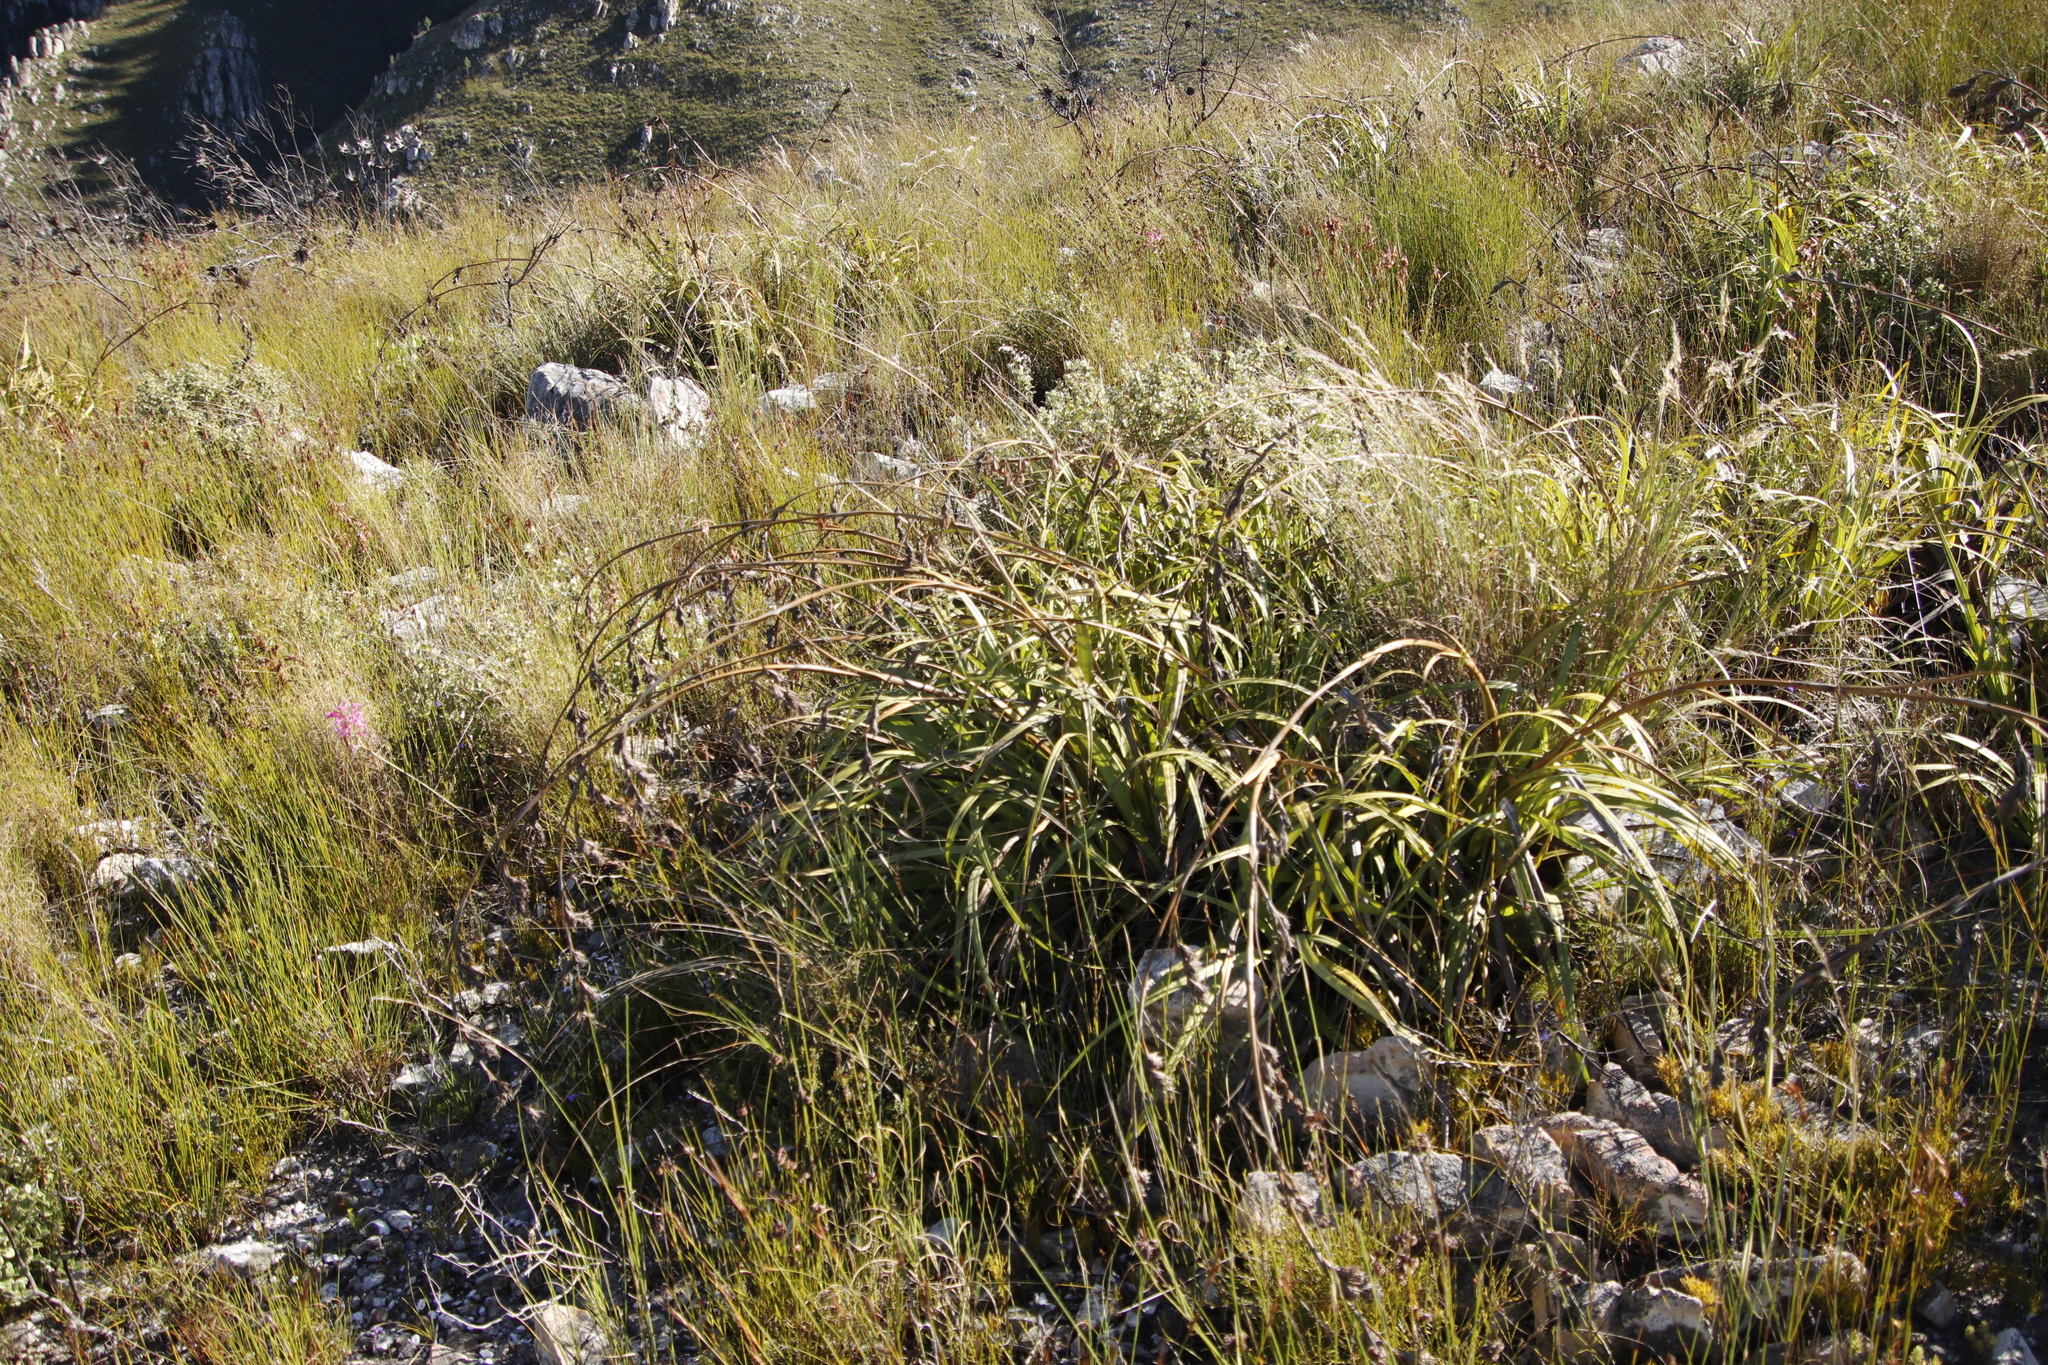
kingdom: Plantae
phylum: Tracheophyta
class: Liliopsida
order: Poales
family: Cyperaceae
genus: Tetraria
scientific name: Tetraria thermalis
